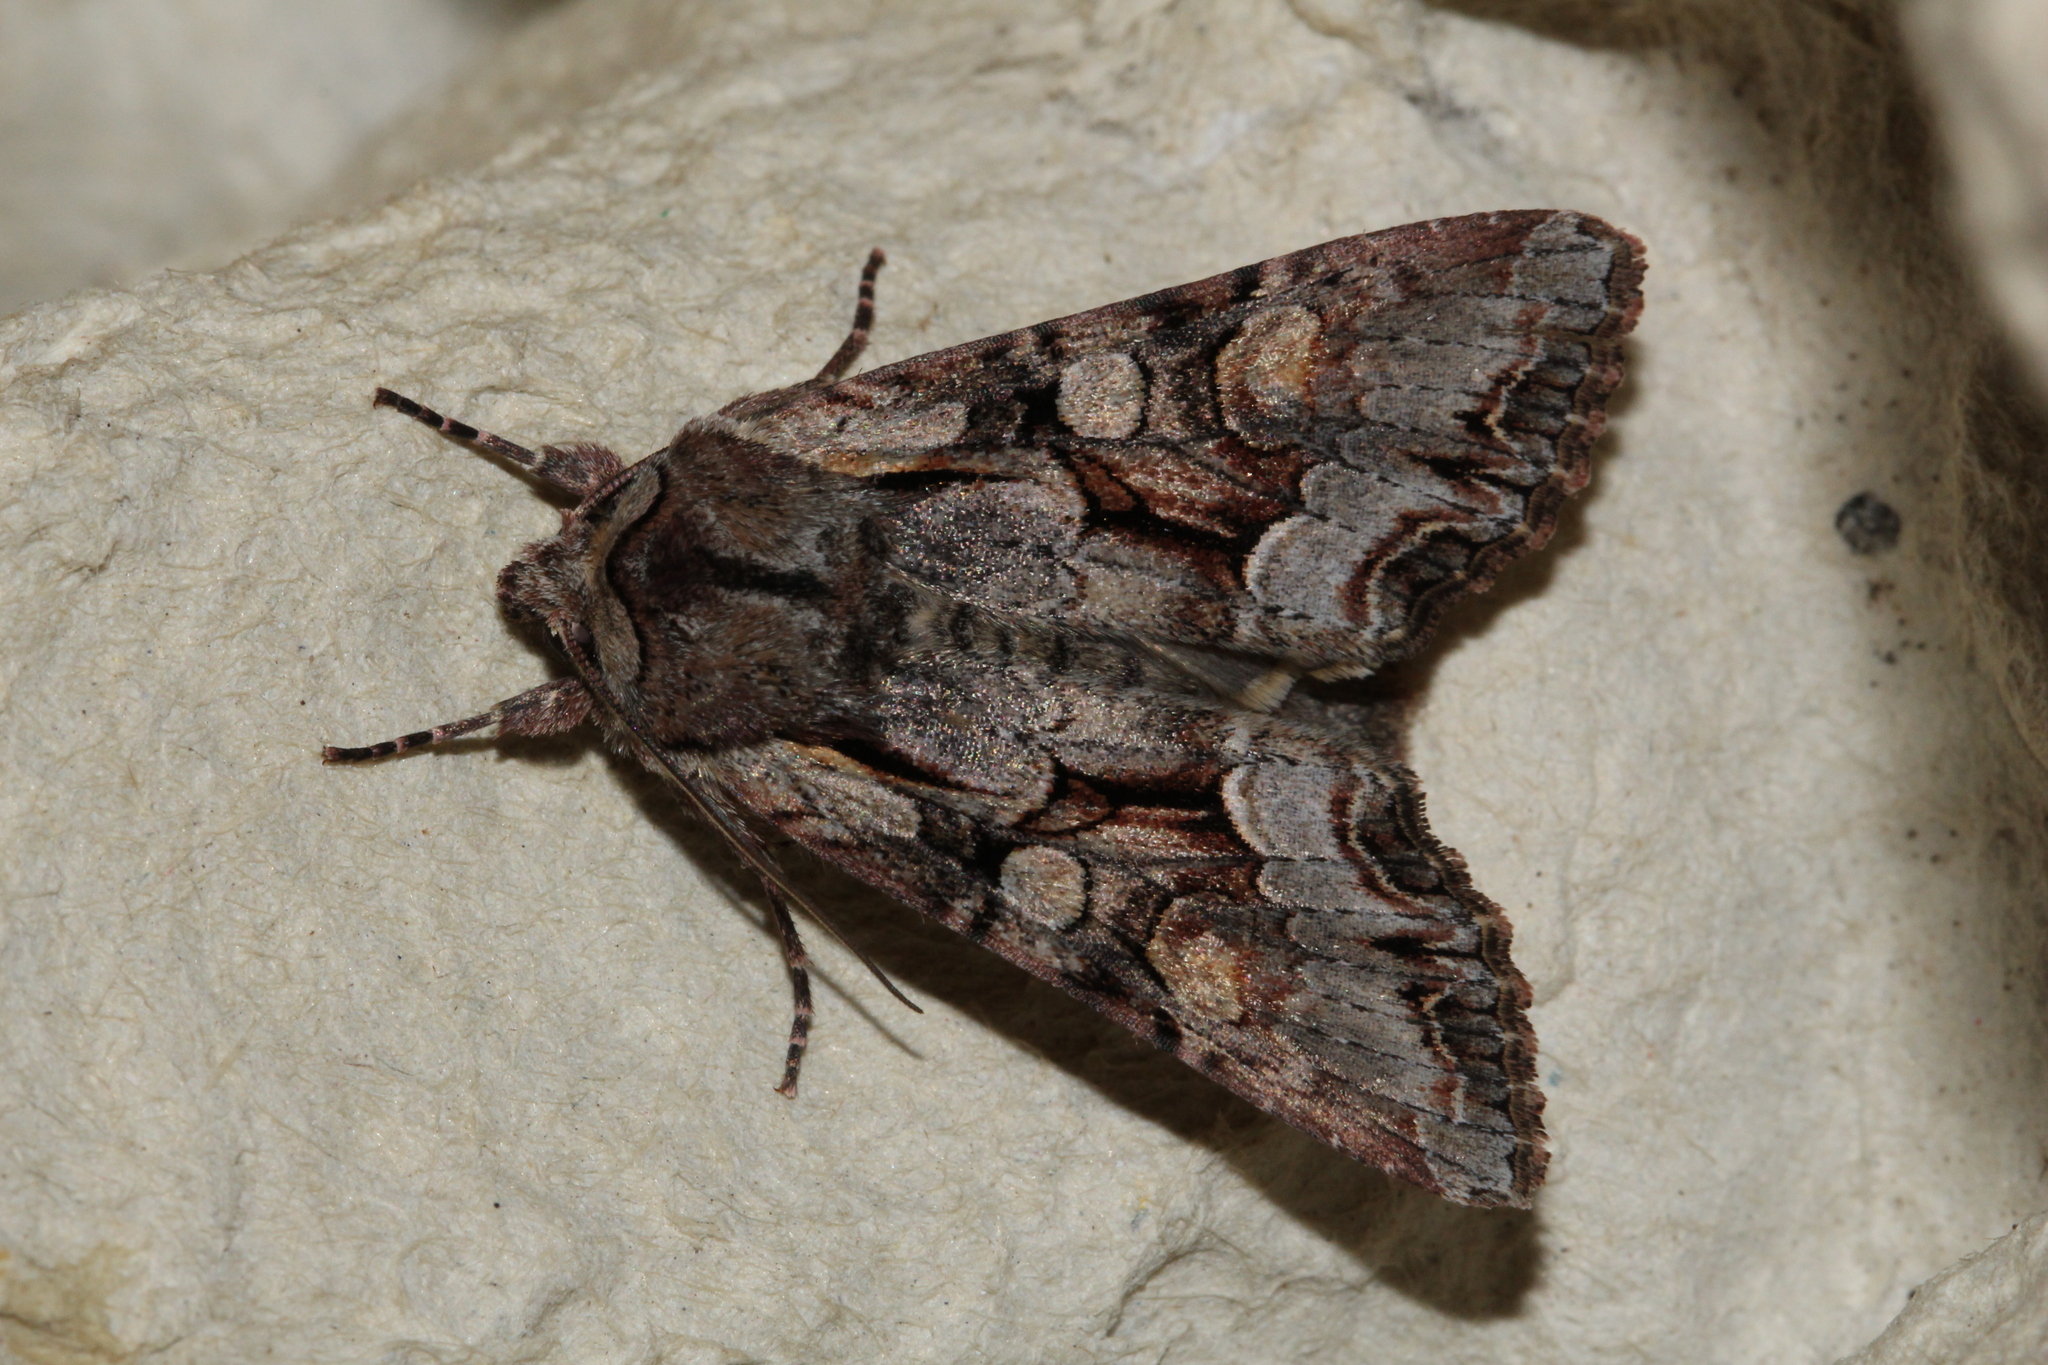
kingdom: Animalia
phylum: Arthropoda
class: Insecta
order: Lepidoptera
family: Noctuidae
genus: Lacanobia
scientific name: Lacanobia w-latinum
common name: Light brocade
